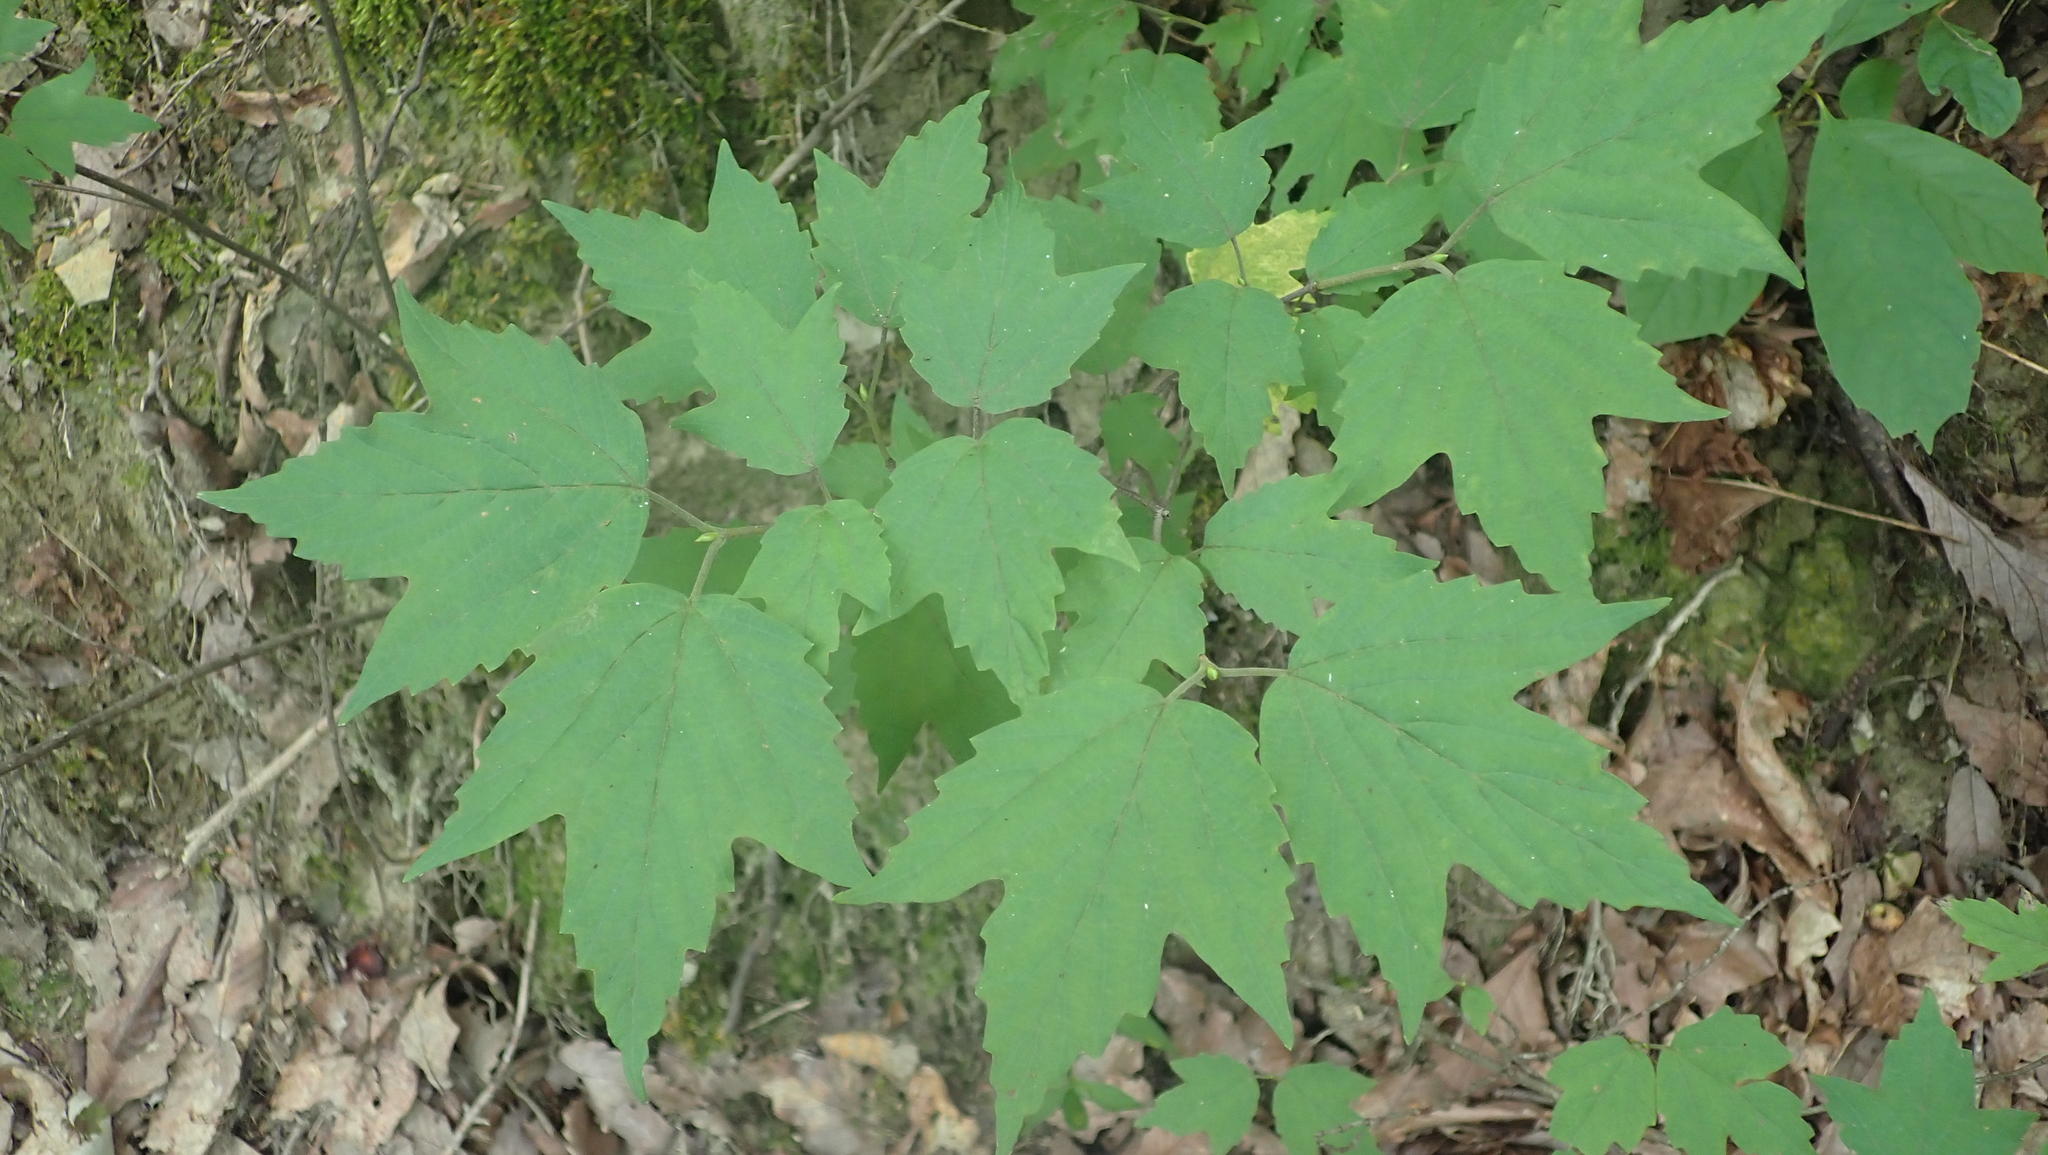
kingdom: Plantae
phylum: Tracheophyta
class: Magnoliopsida
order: Dipsacales
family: Viburnaceae
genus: Viburnum
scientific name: Viburnum acerifolium
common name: Dockmackie
